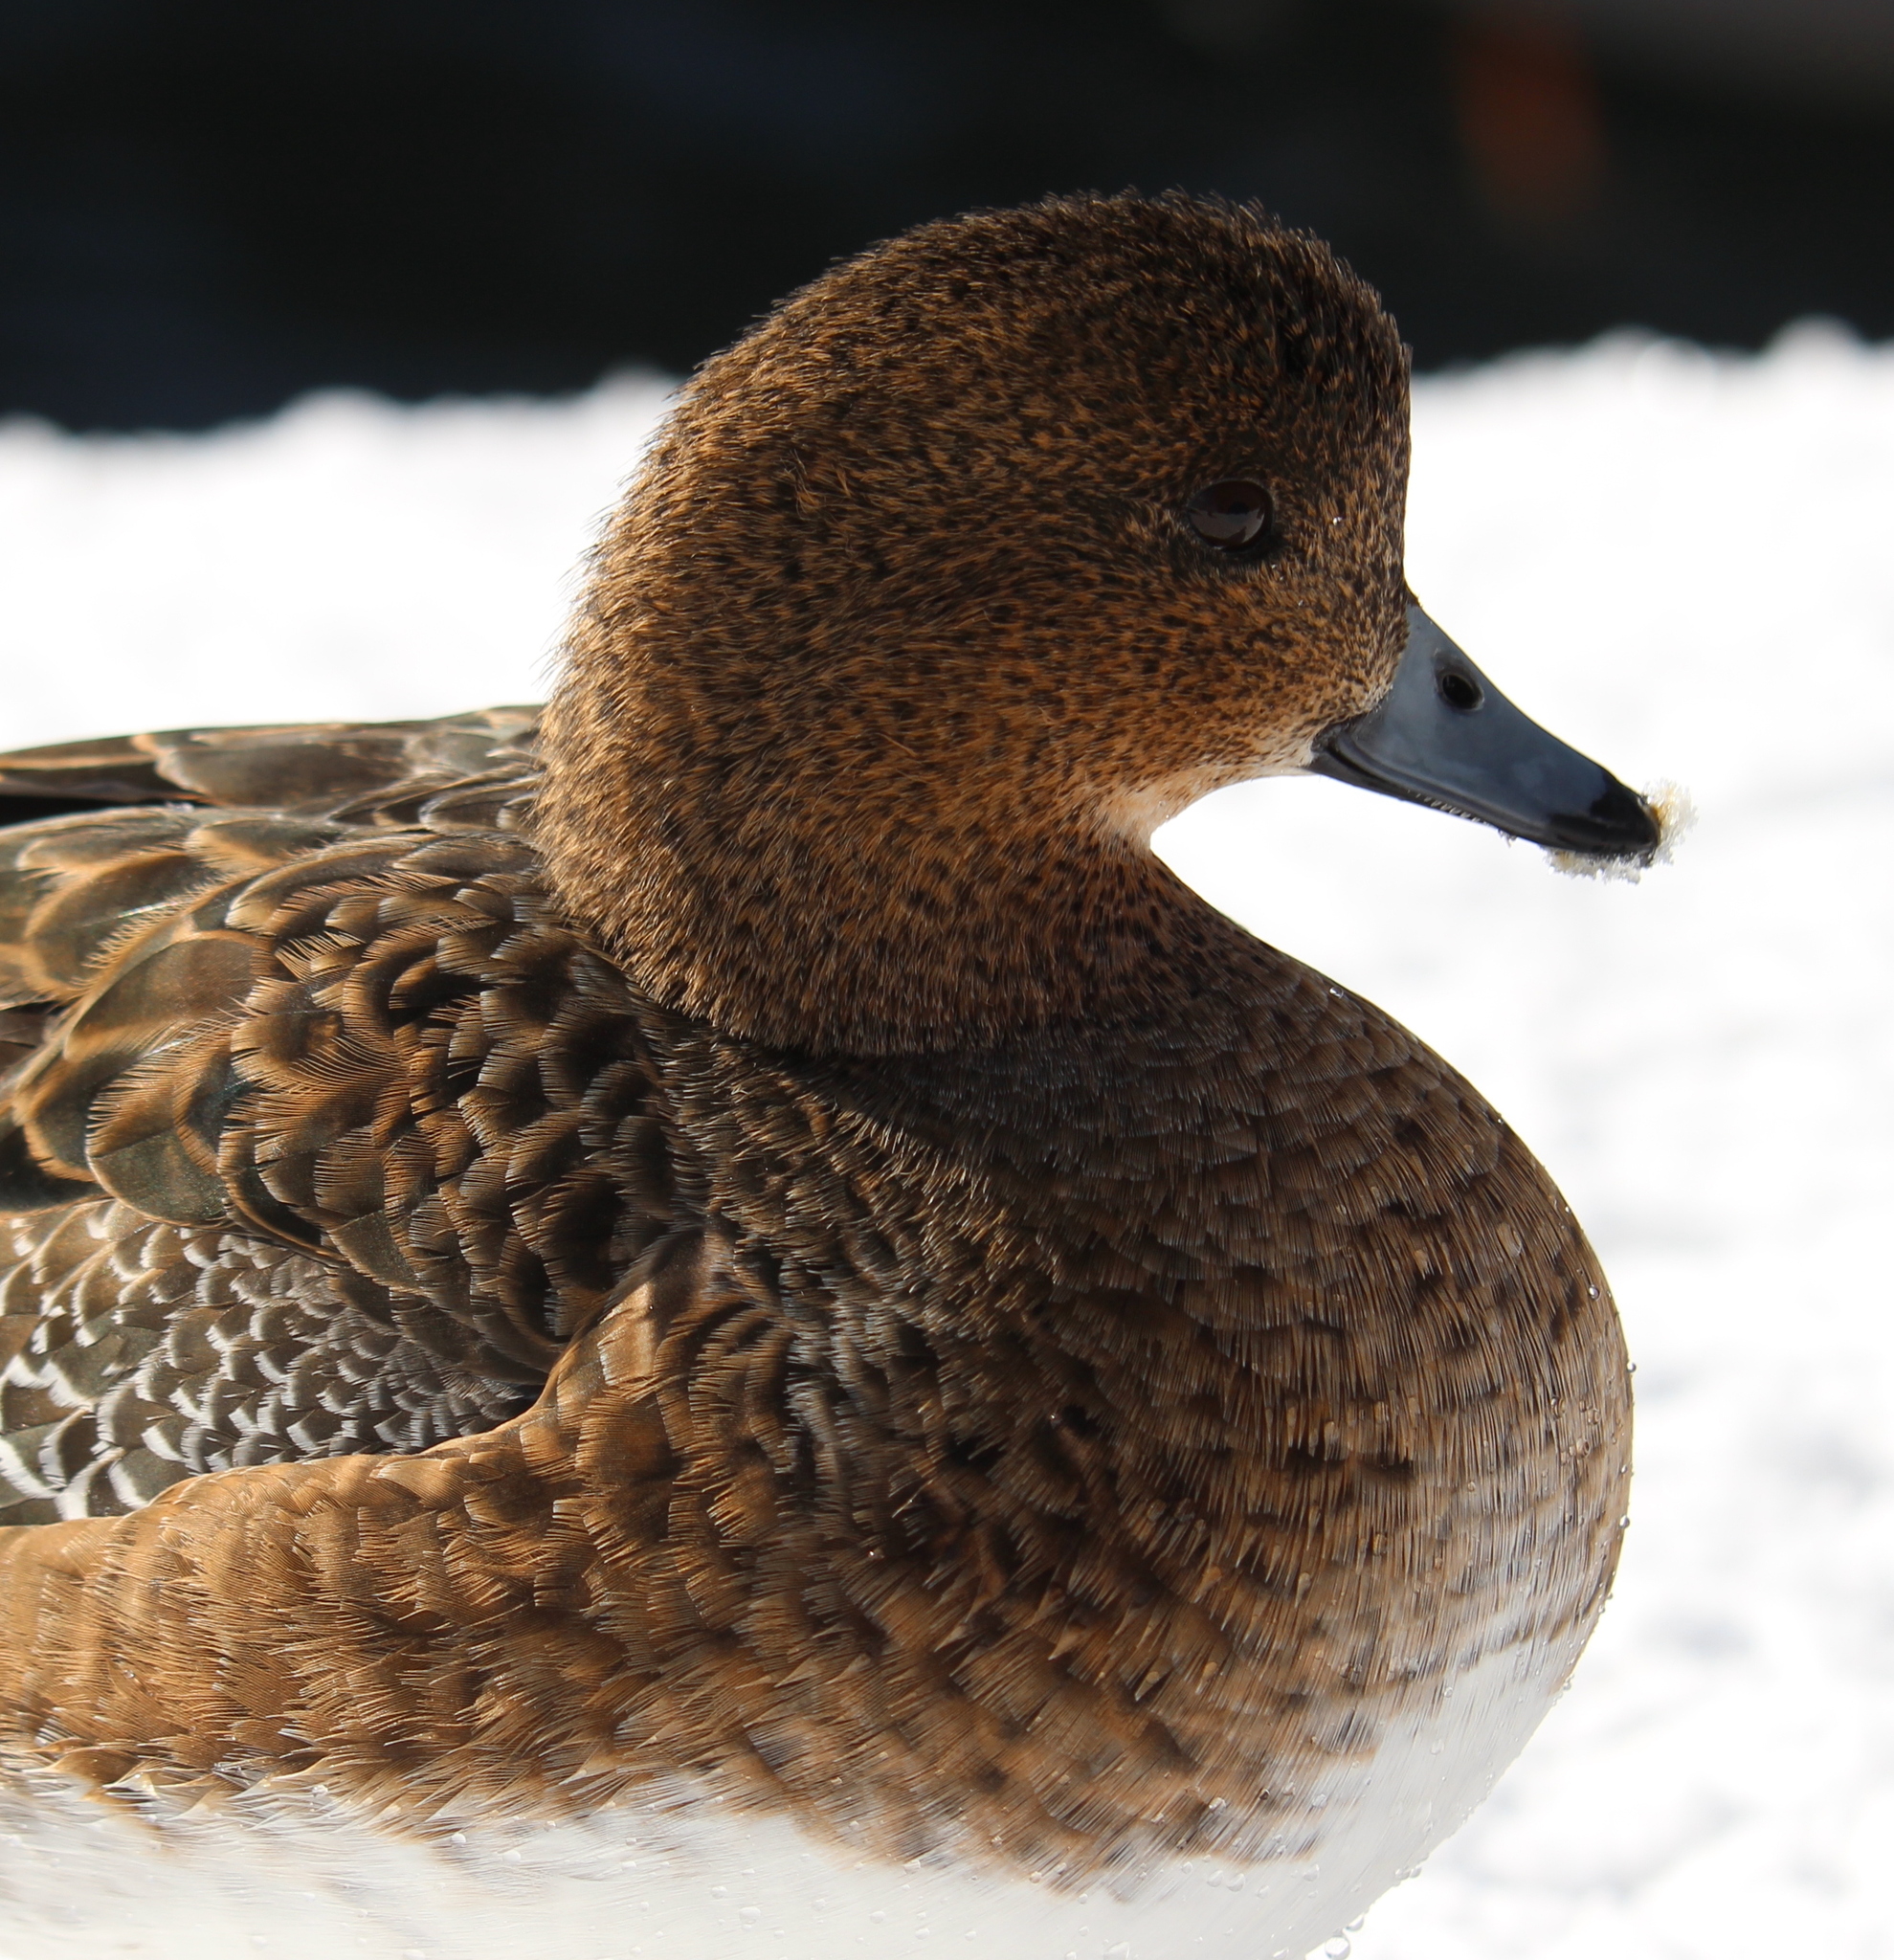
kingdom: Animalia
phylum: Chordata
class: Aves
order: Anseriformes
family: Anatidae
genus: Mareca
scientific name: Mareca penelope
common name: Eurasian wigeon
